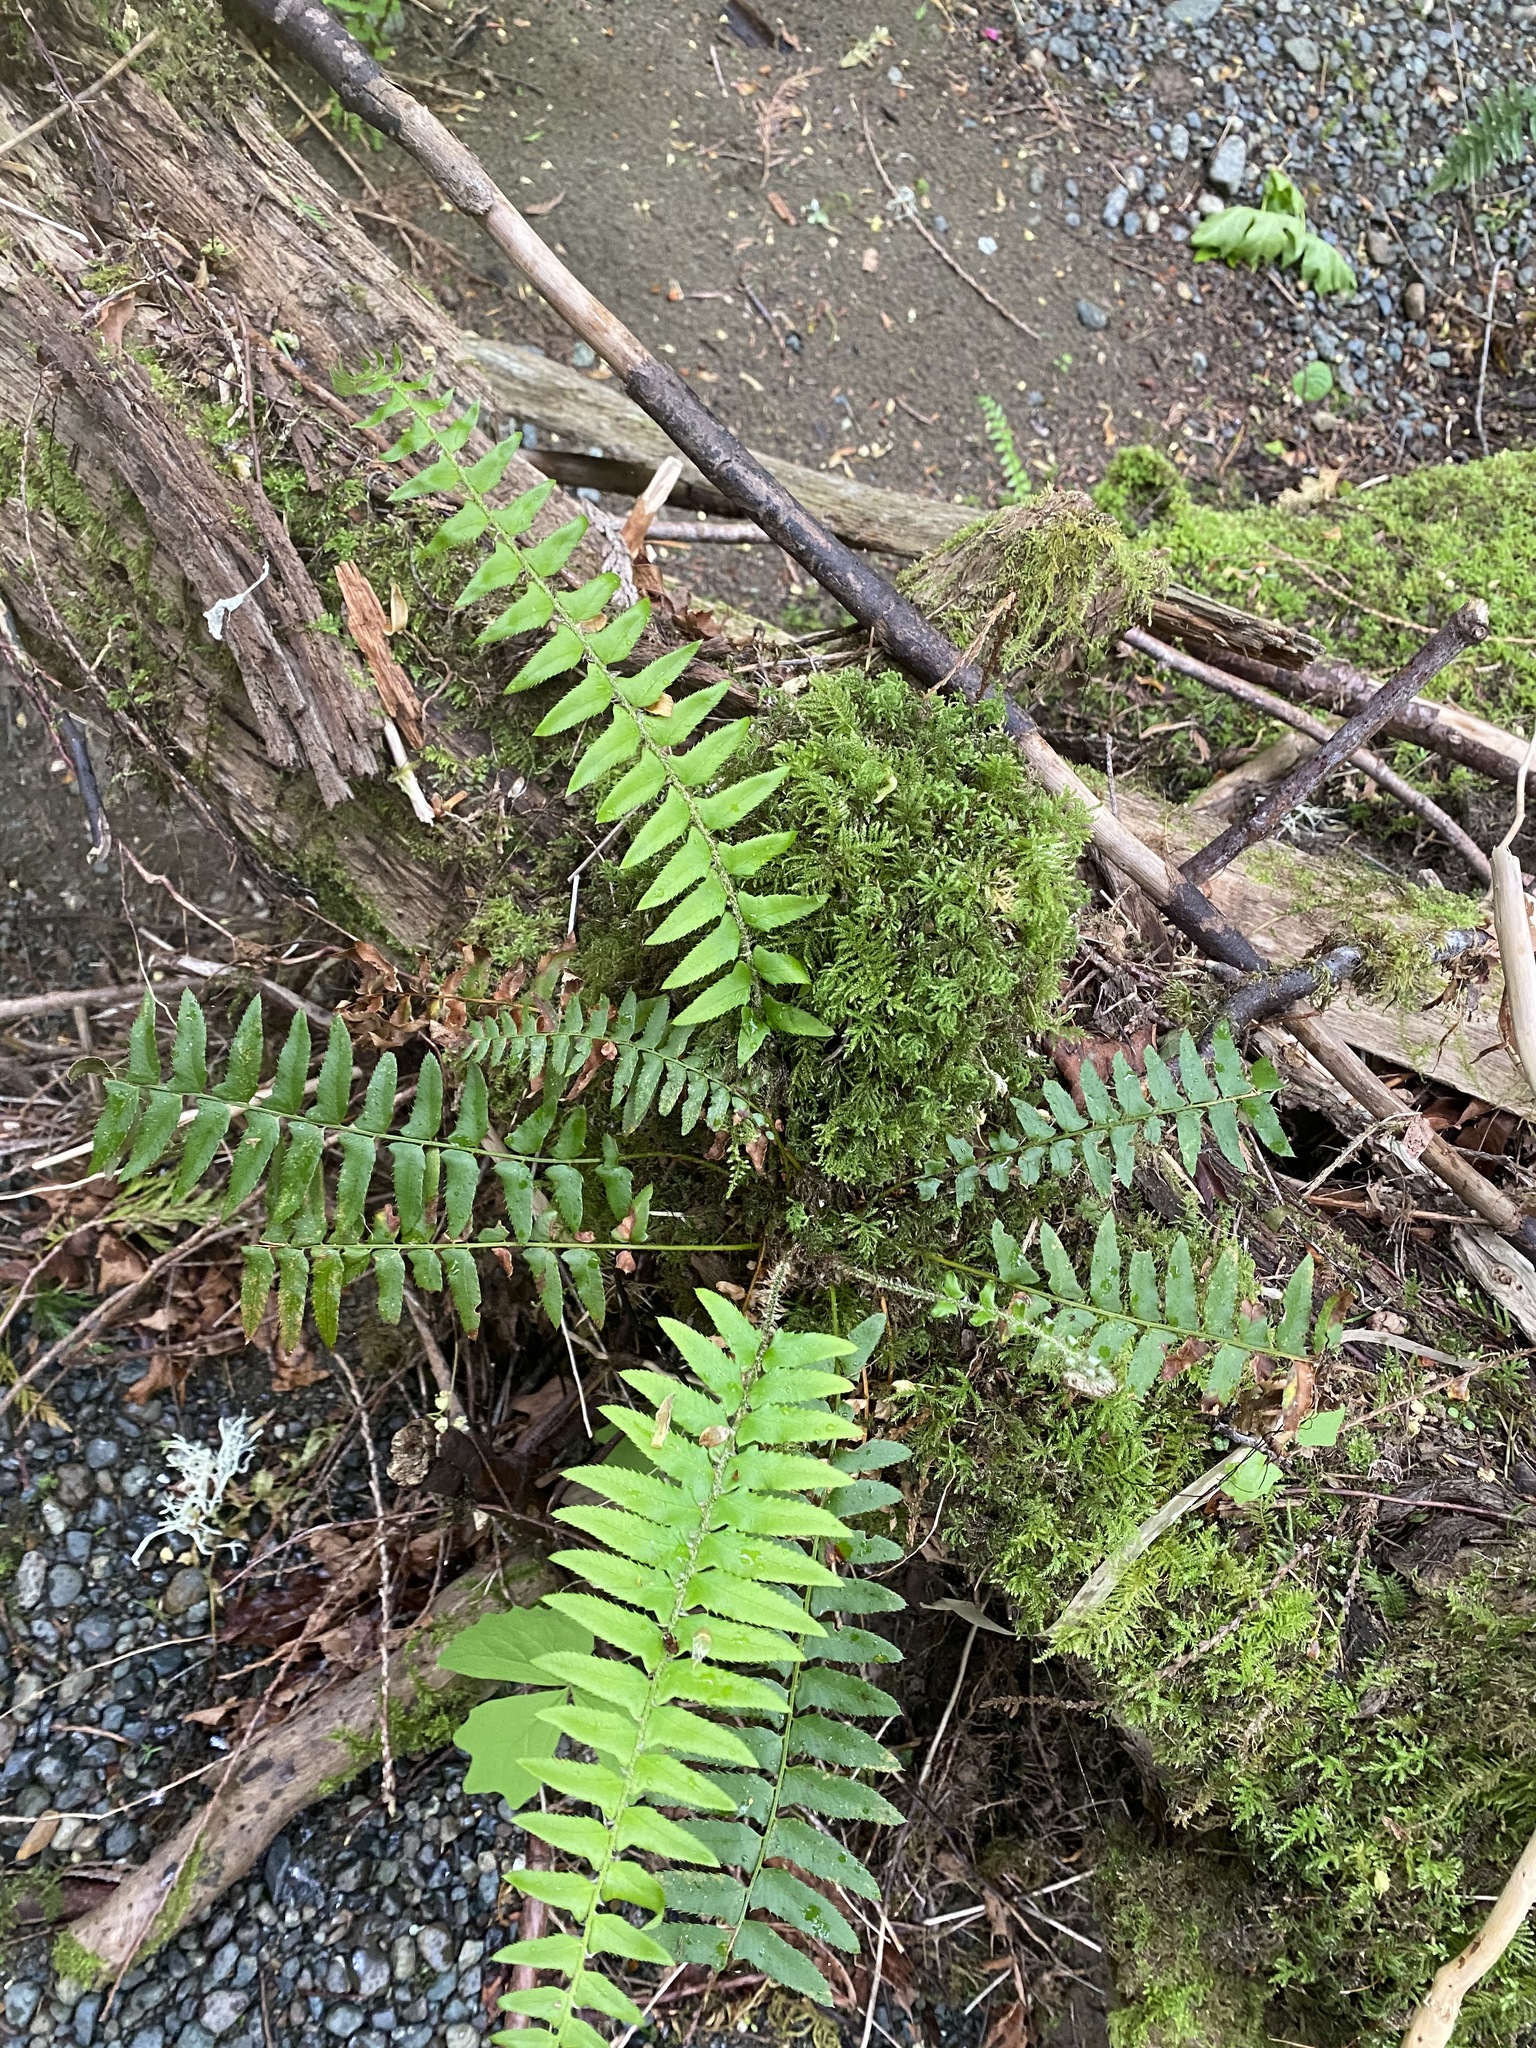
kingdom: Plantae
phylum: Tracheophyta
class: Polypodiopsida
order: Polypodiales
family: Dryopteridaceae
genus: Polystichum
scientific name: Polystichum munitum
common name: Western sword-fern
